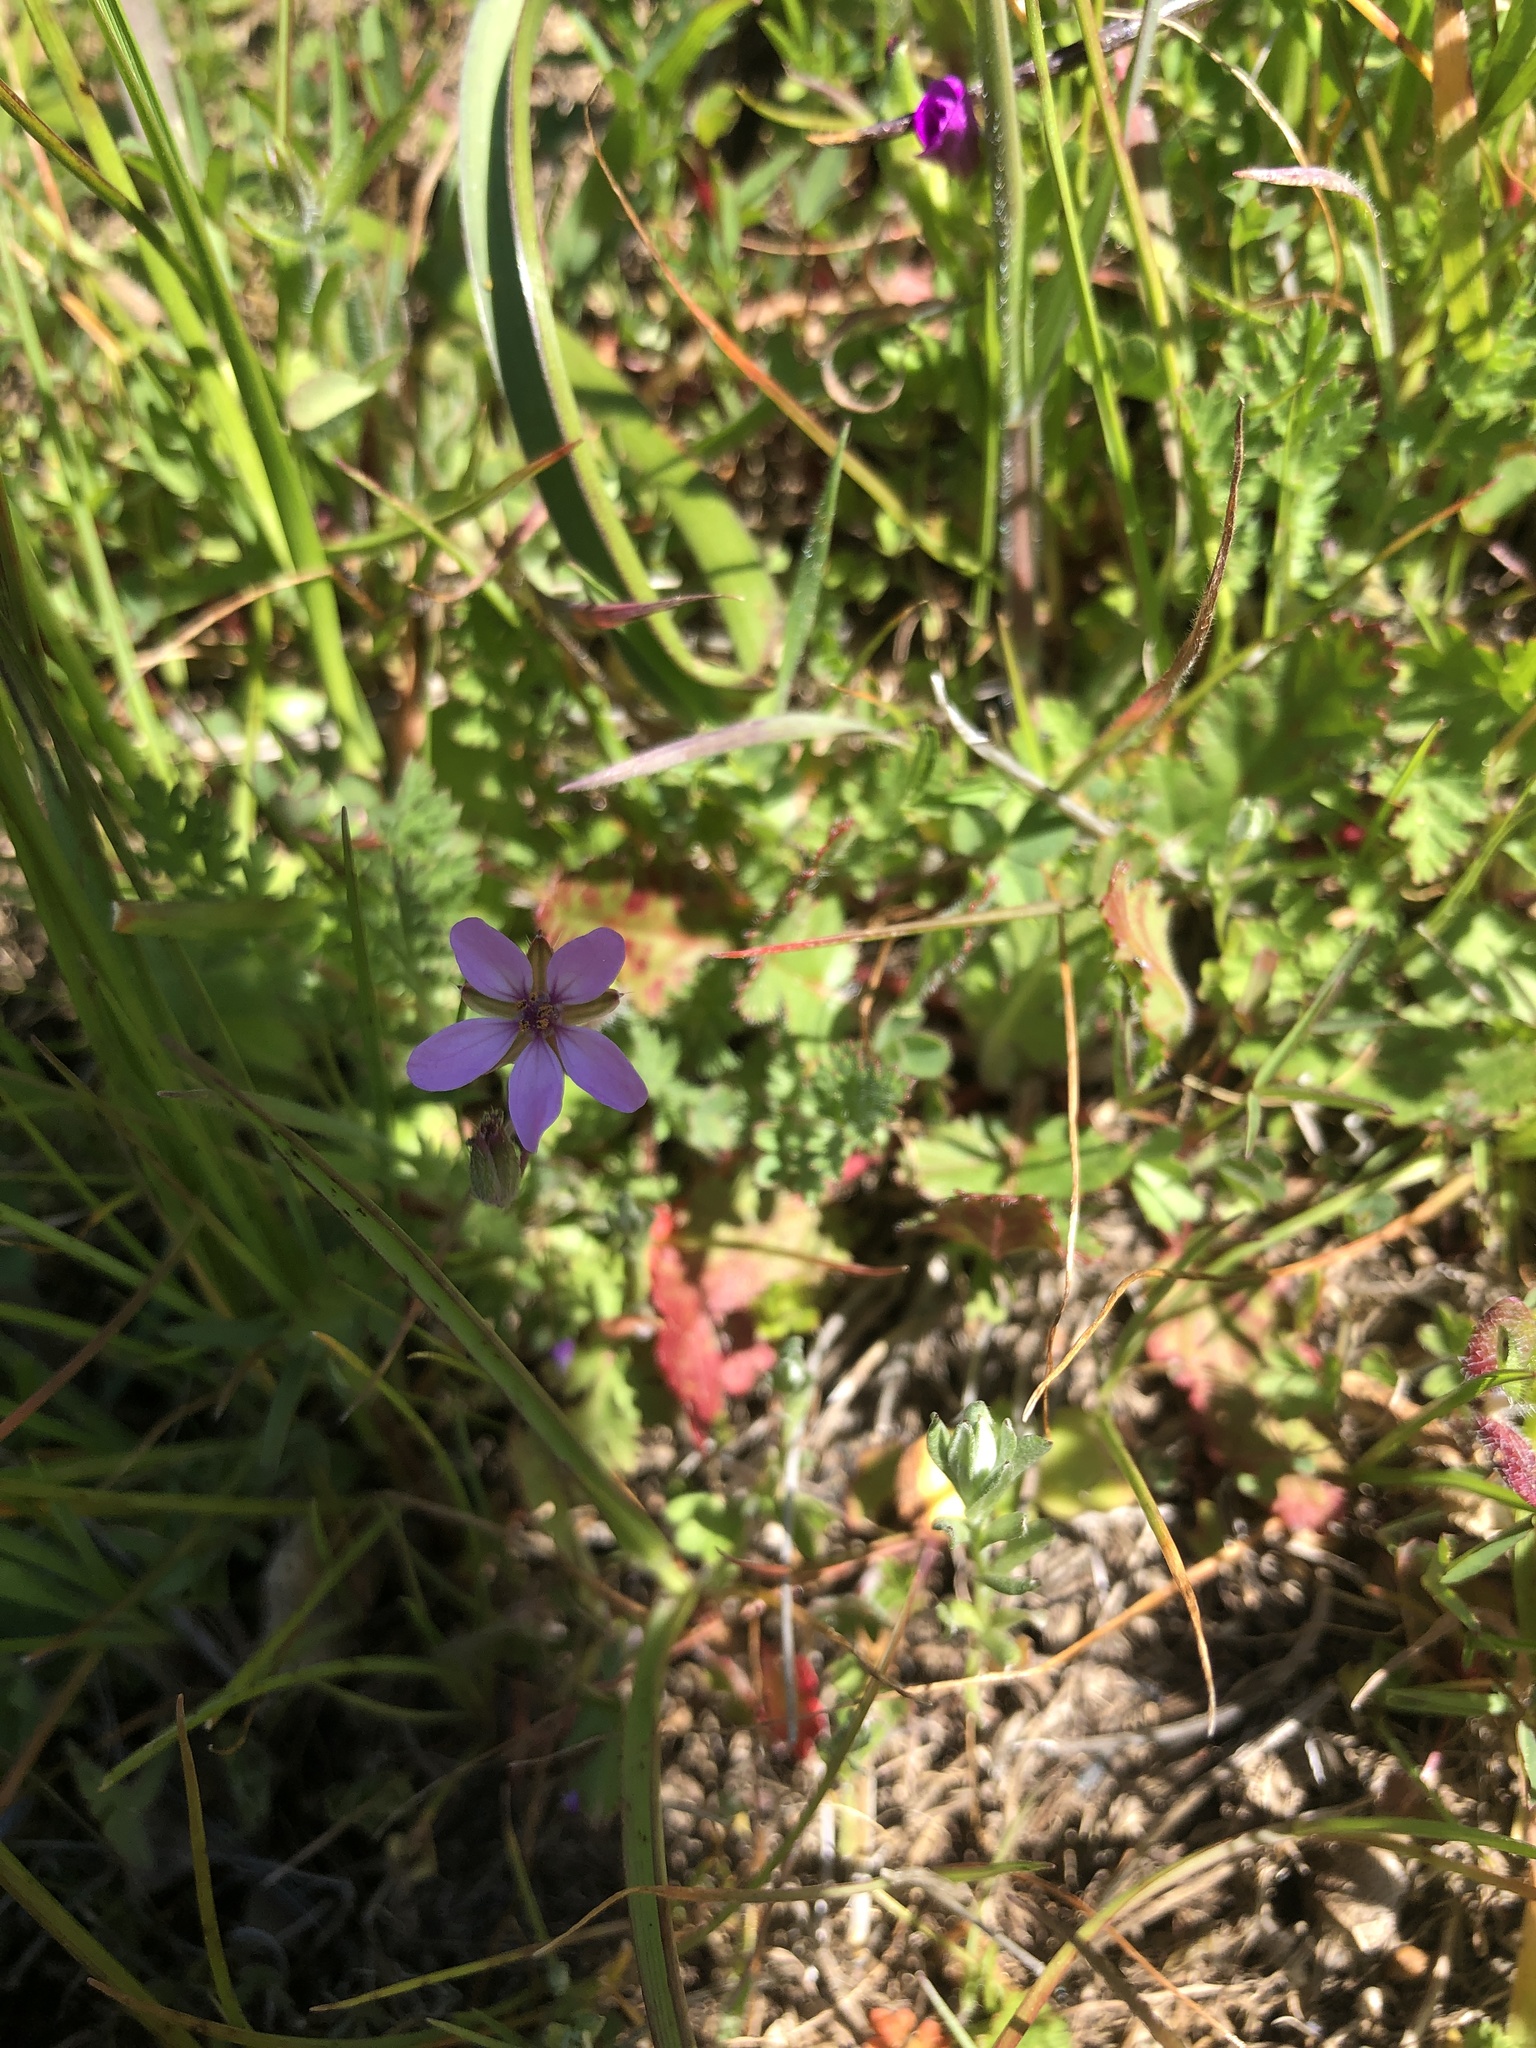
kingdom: Plantae
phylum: Tracheophyta
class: Magnoliopsida
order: Geraniales
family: Geraniaceae
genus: Erodium
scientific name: Erodium cicutarium
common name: Common stork's-bill
